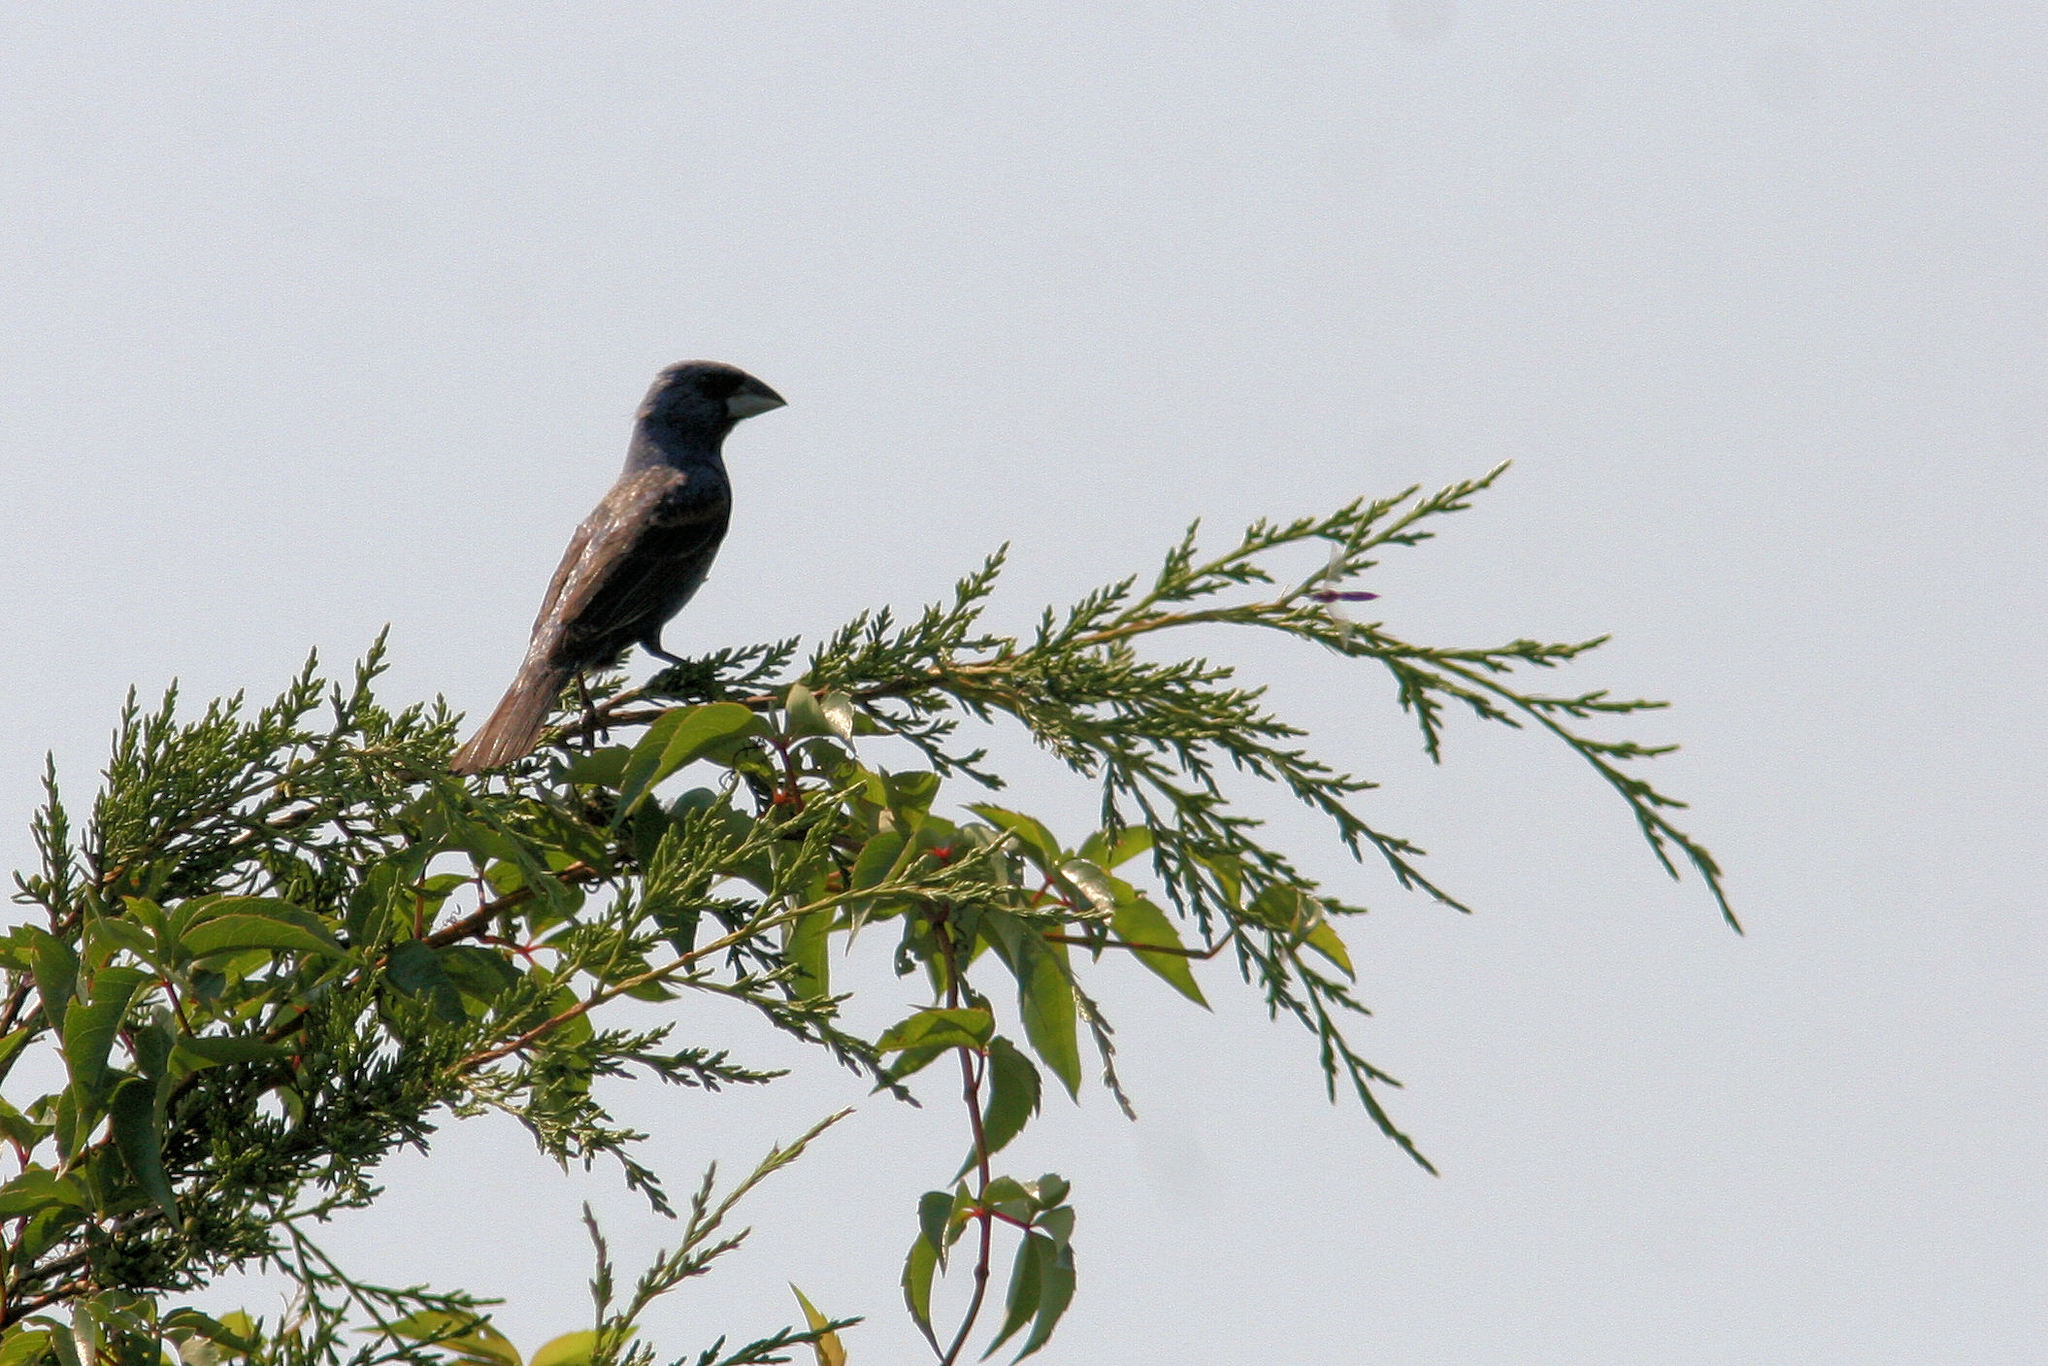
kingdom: Animalia
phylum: Chordata
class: Aves
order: Passeriformes
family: Cardinalidae
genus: Passerina
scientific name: Passerina caerulea
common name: Blue grosbeak
